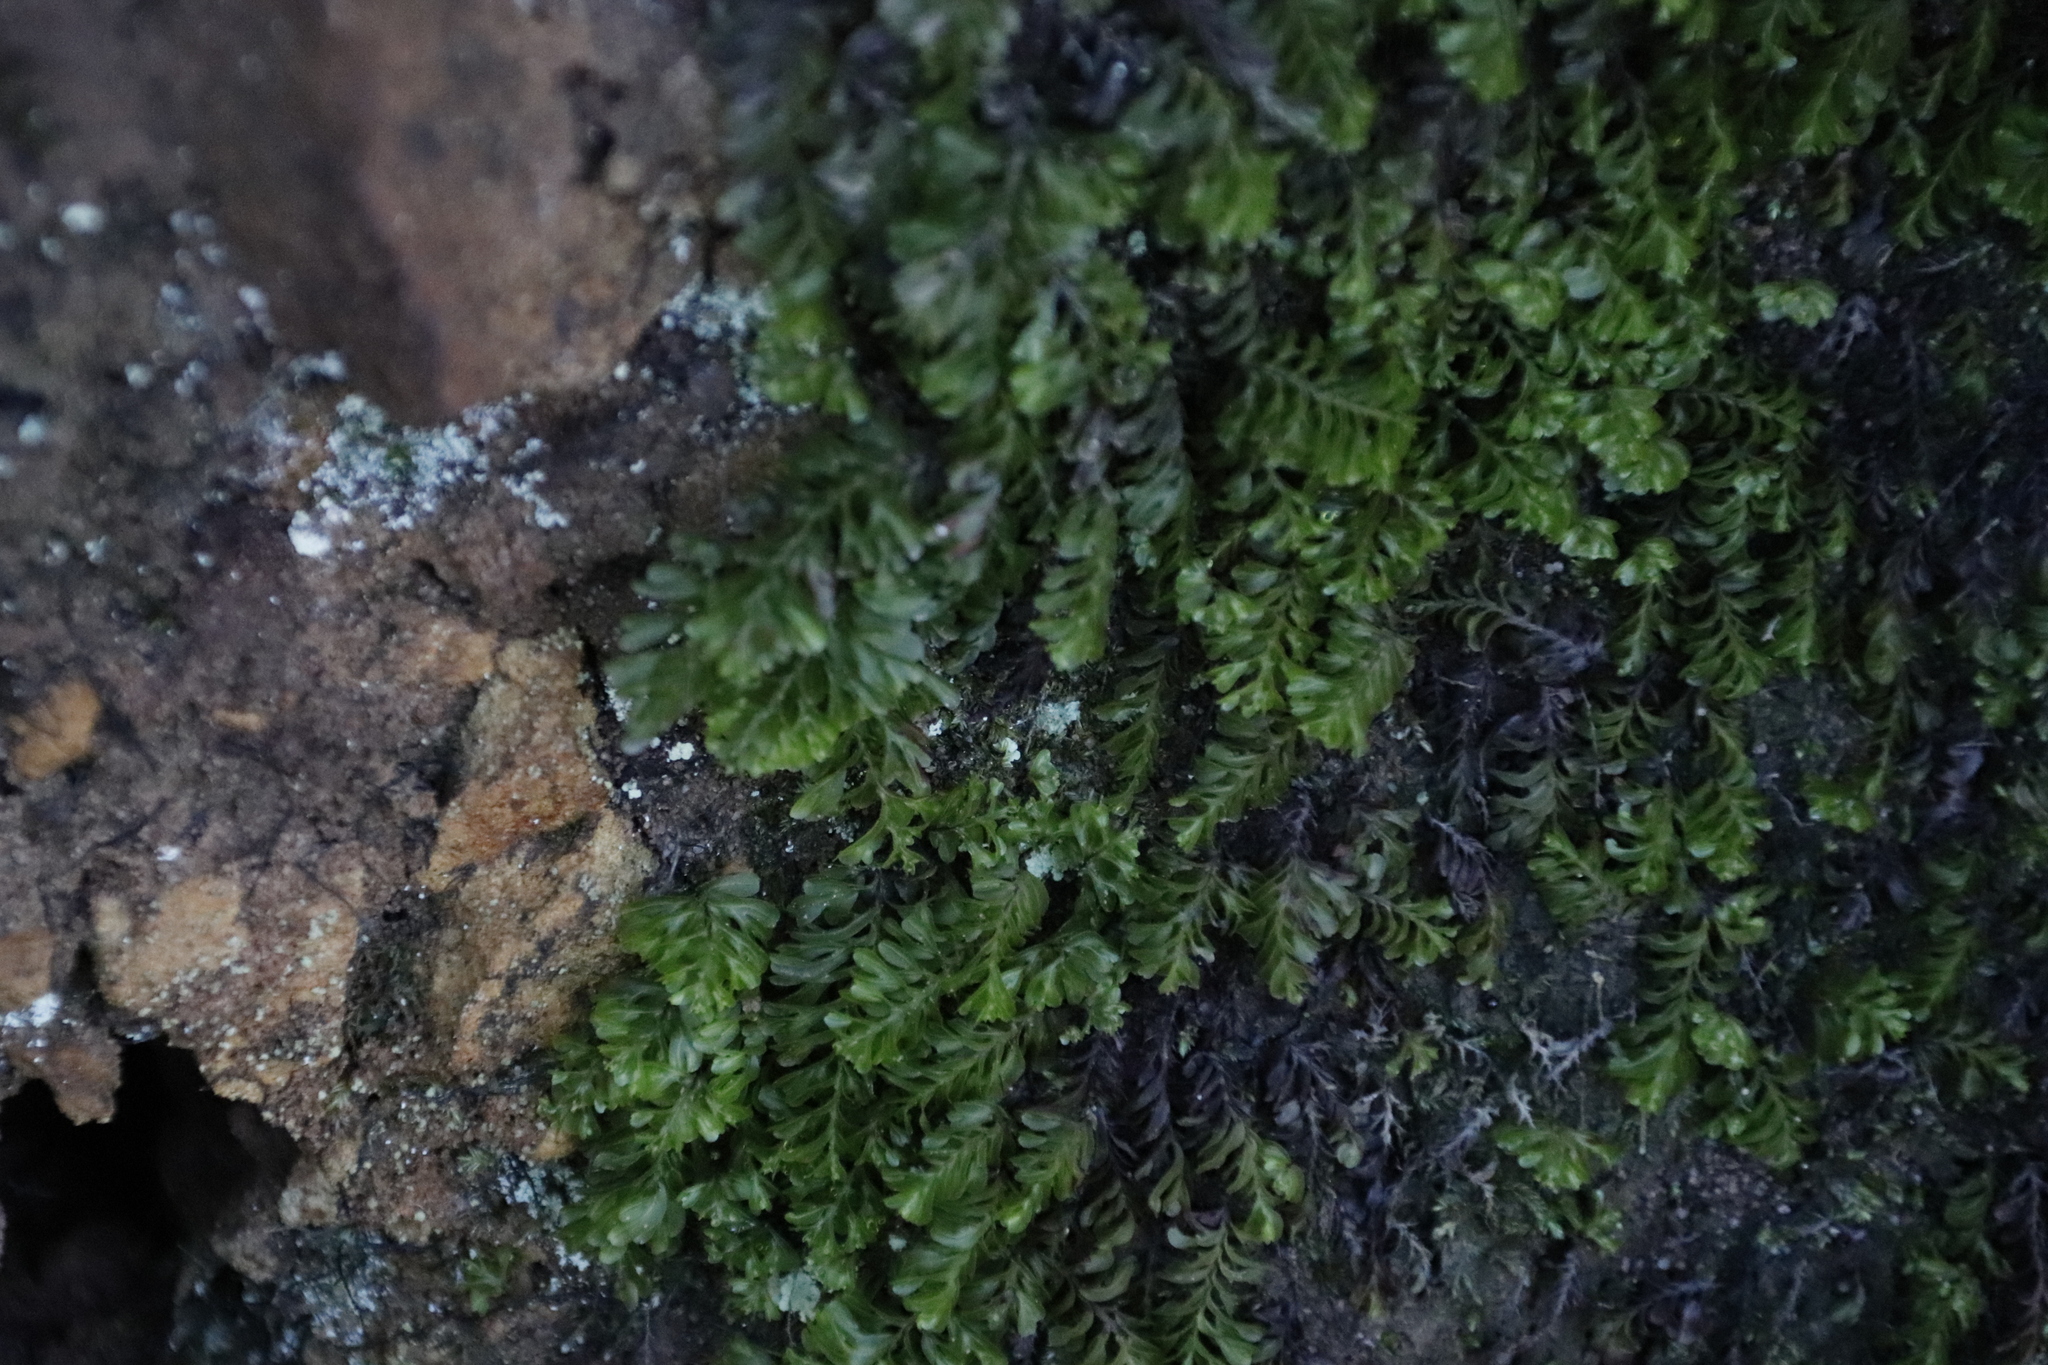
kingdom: Plantae
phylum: Tracheophyta
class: Polypodiopsida
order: Hymenophyllales
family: Hymenophyllaceae
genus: Hymenophyllum
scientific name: Hymenophyllum capense
